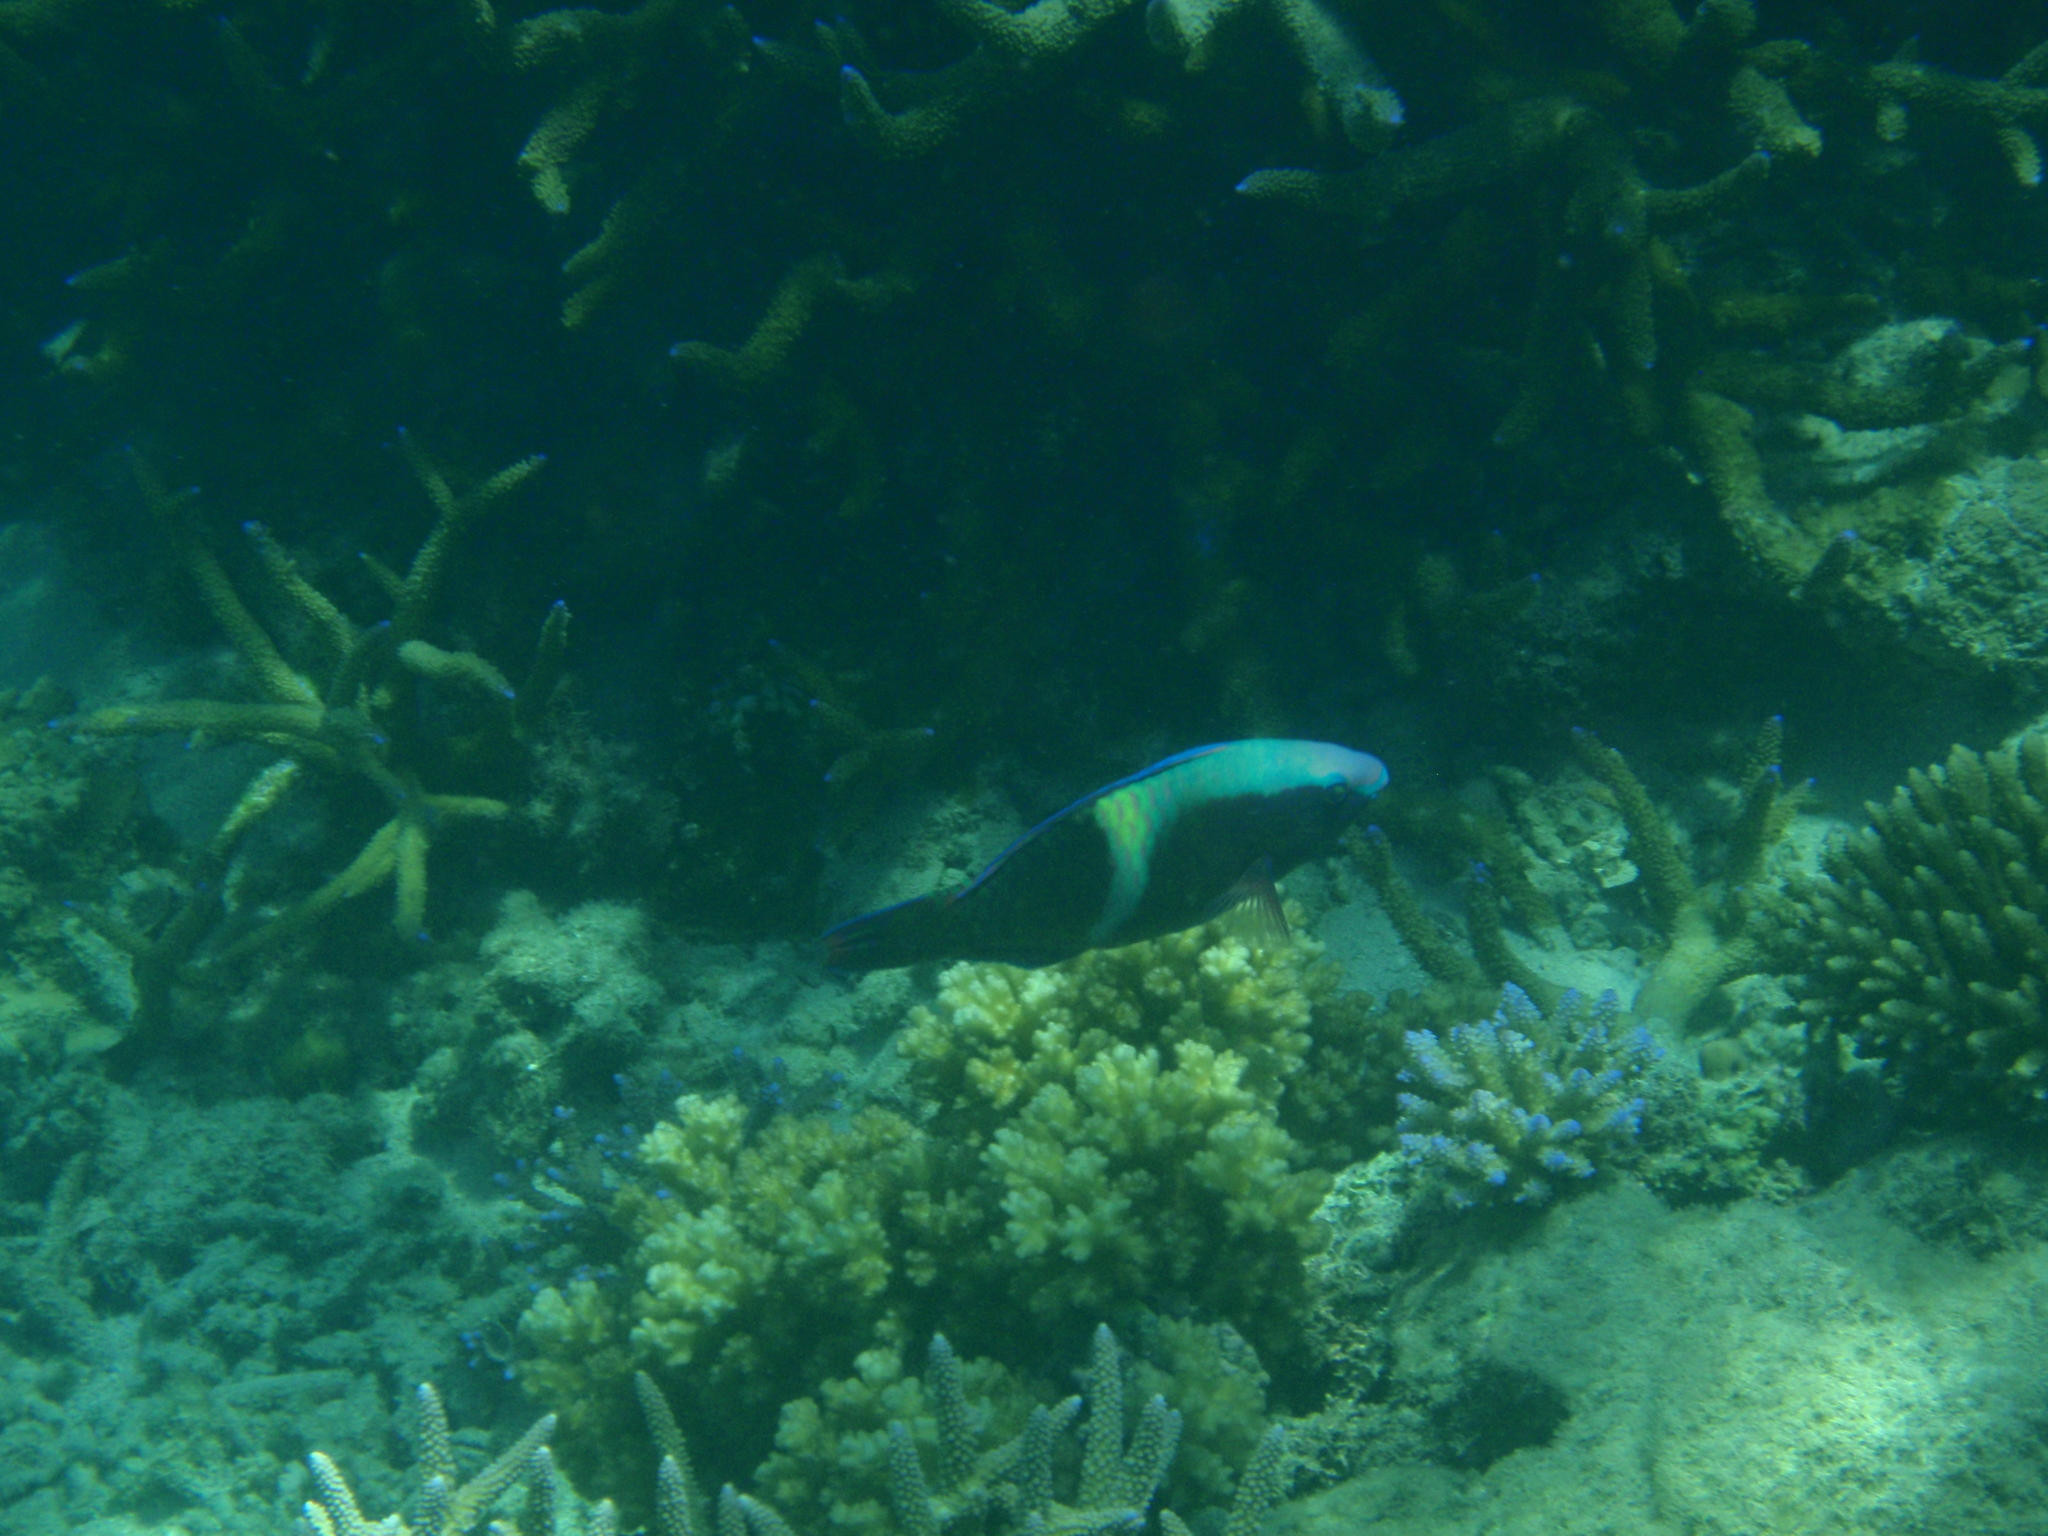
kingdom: Animalia
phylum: Chordata
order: Perciformes
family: Scaridae
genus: Scarus
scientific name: Scarus schlegeli
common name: Schlegel's parrotfish
